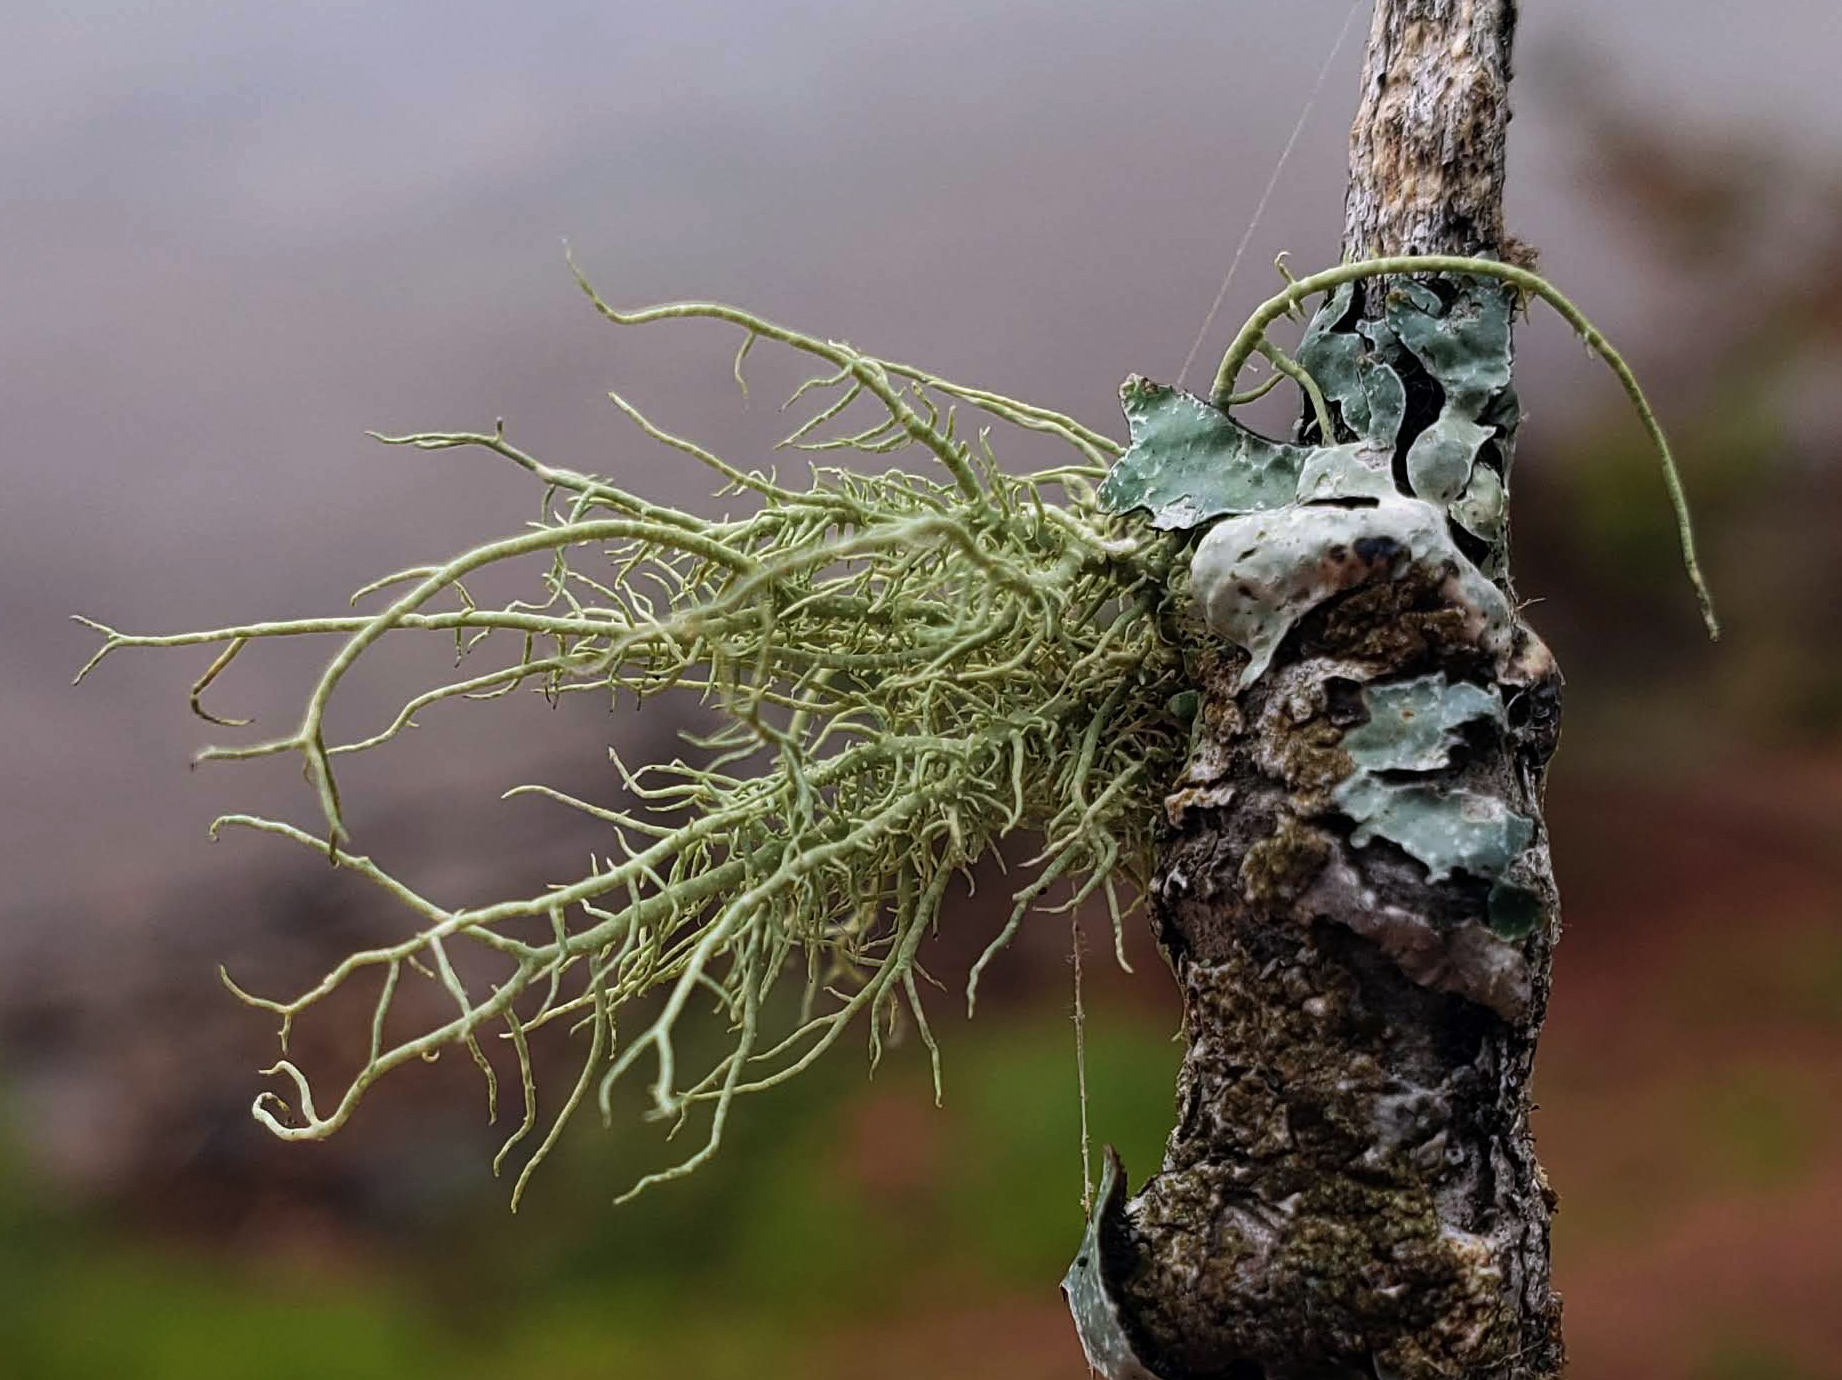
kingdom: Fungi
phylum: Ascomycota
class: Lecanoromycetes
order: Lecanorales
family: Parmeliaceae
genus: Usnea
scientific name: Usnea
